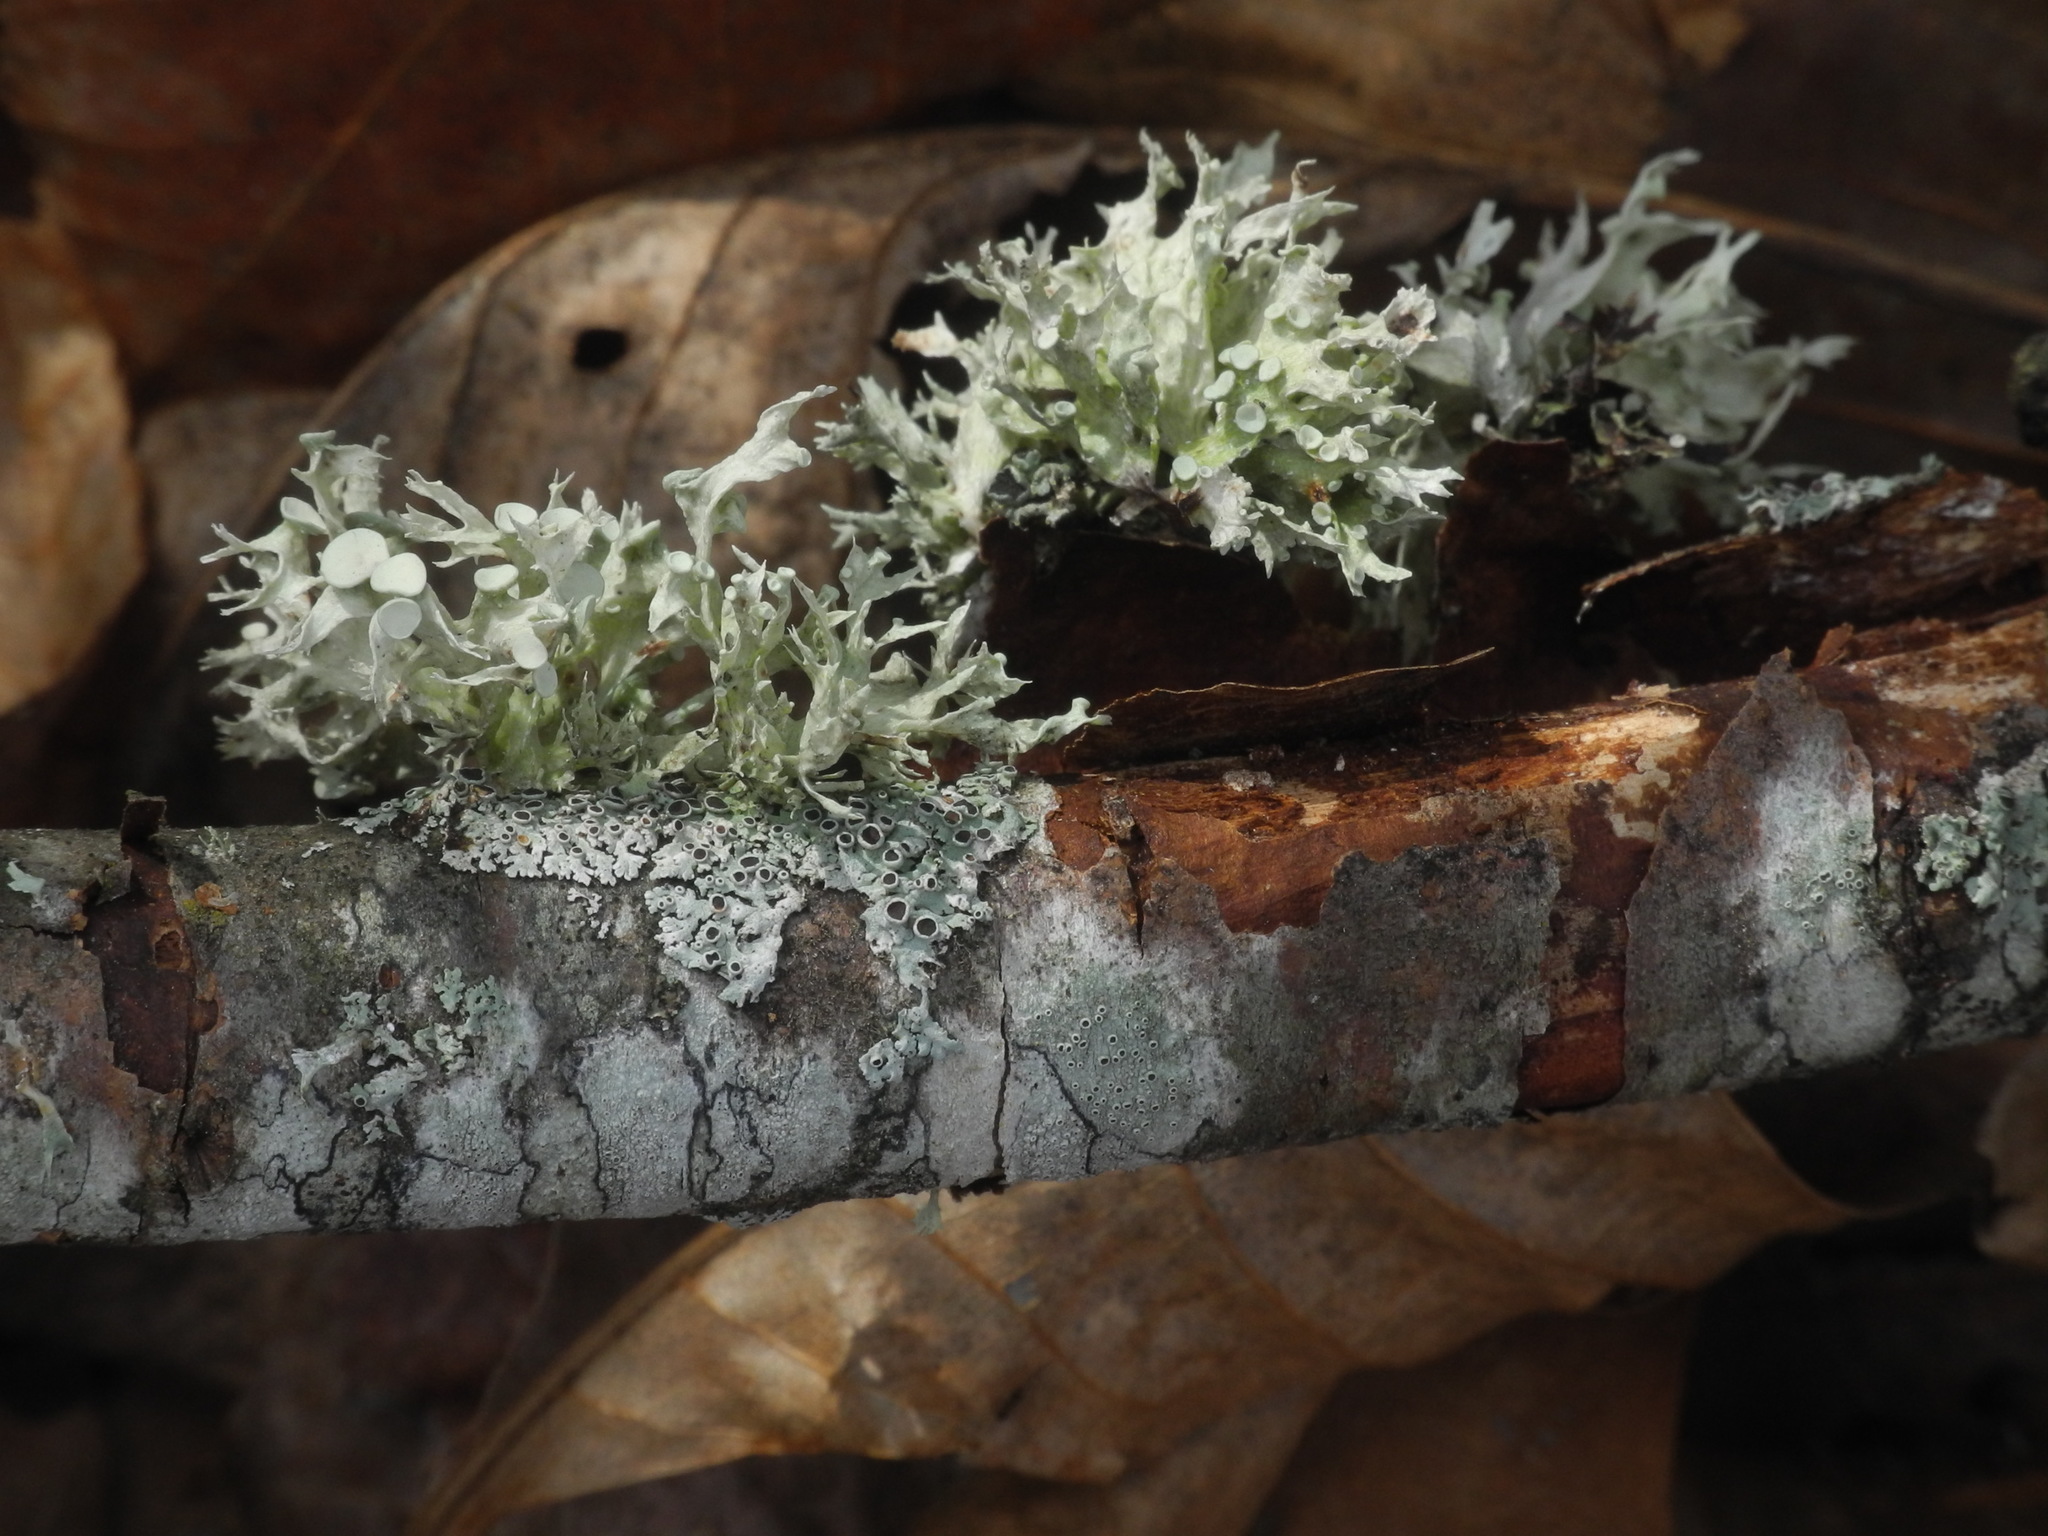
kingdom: Fungi
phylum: Ascomycota
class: Lecanoromycetes
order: Lecanorales
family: Ramalinaceae
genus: Ramalina
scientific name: Ramalina americana
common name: Sinewed bush lichen
